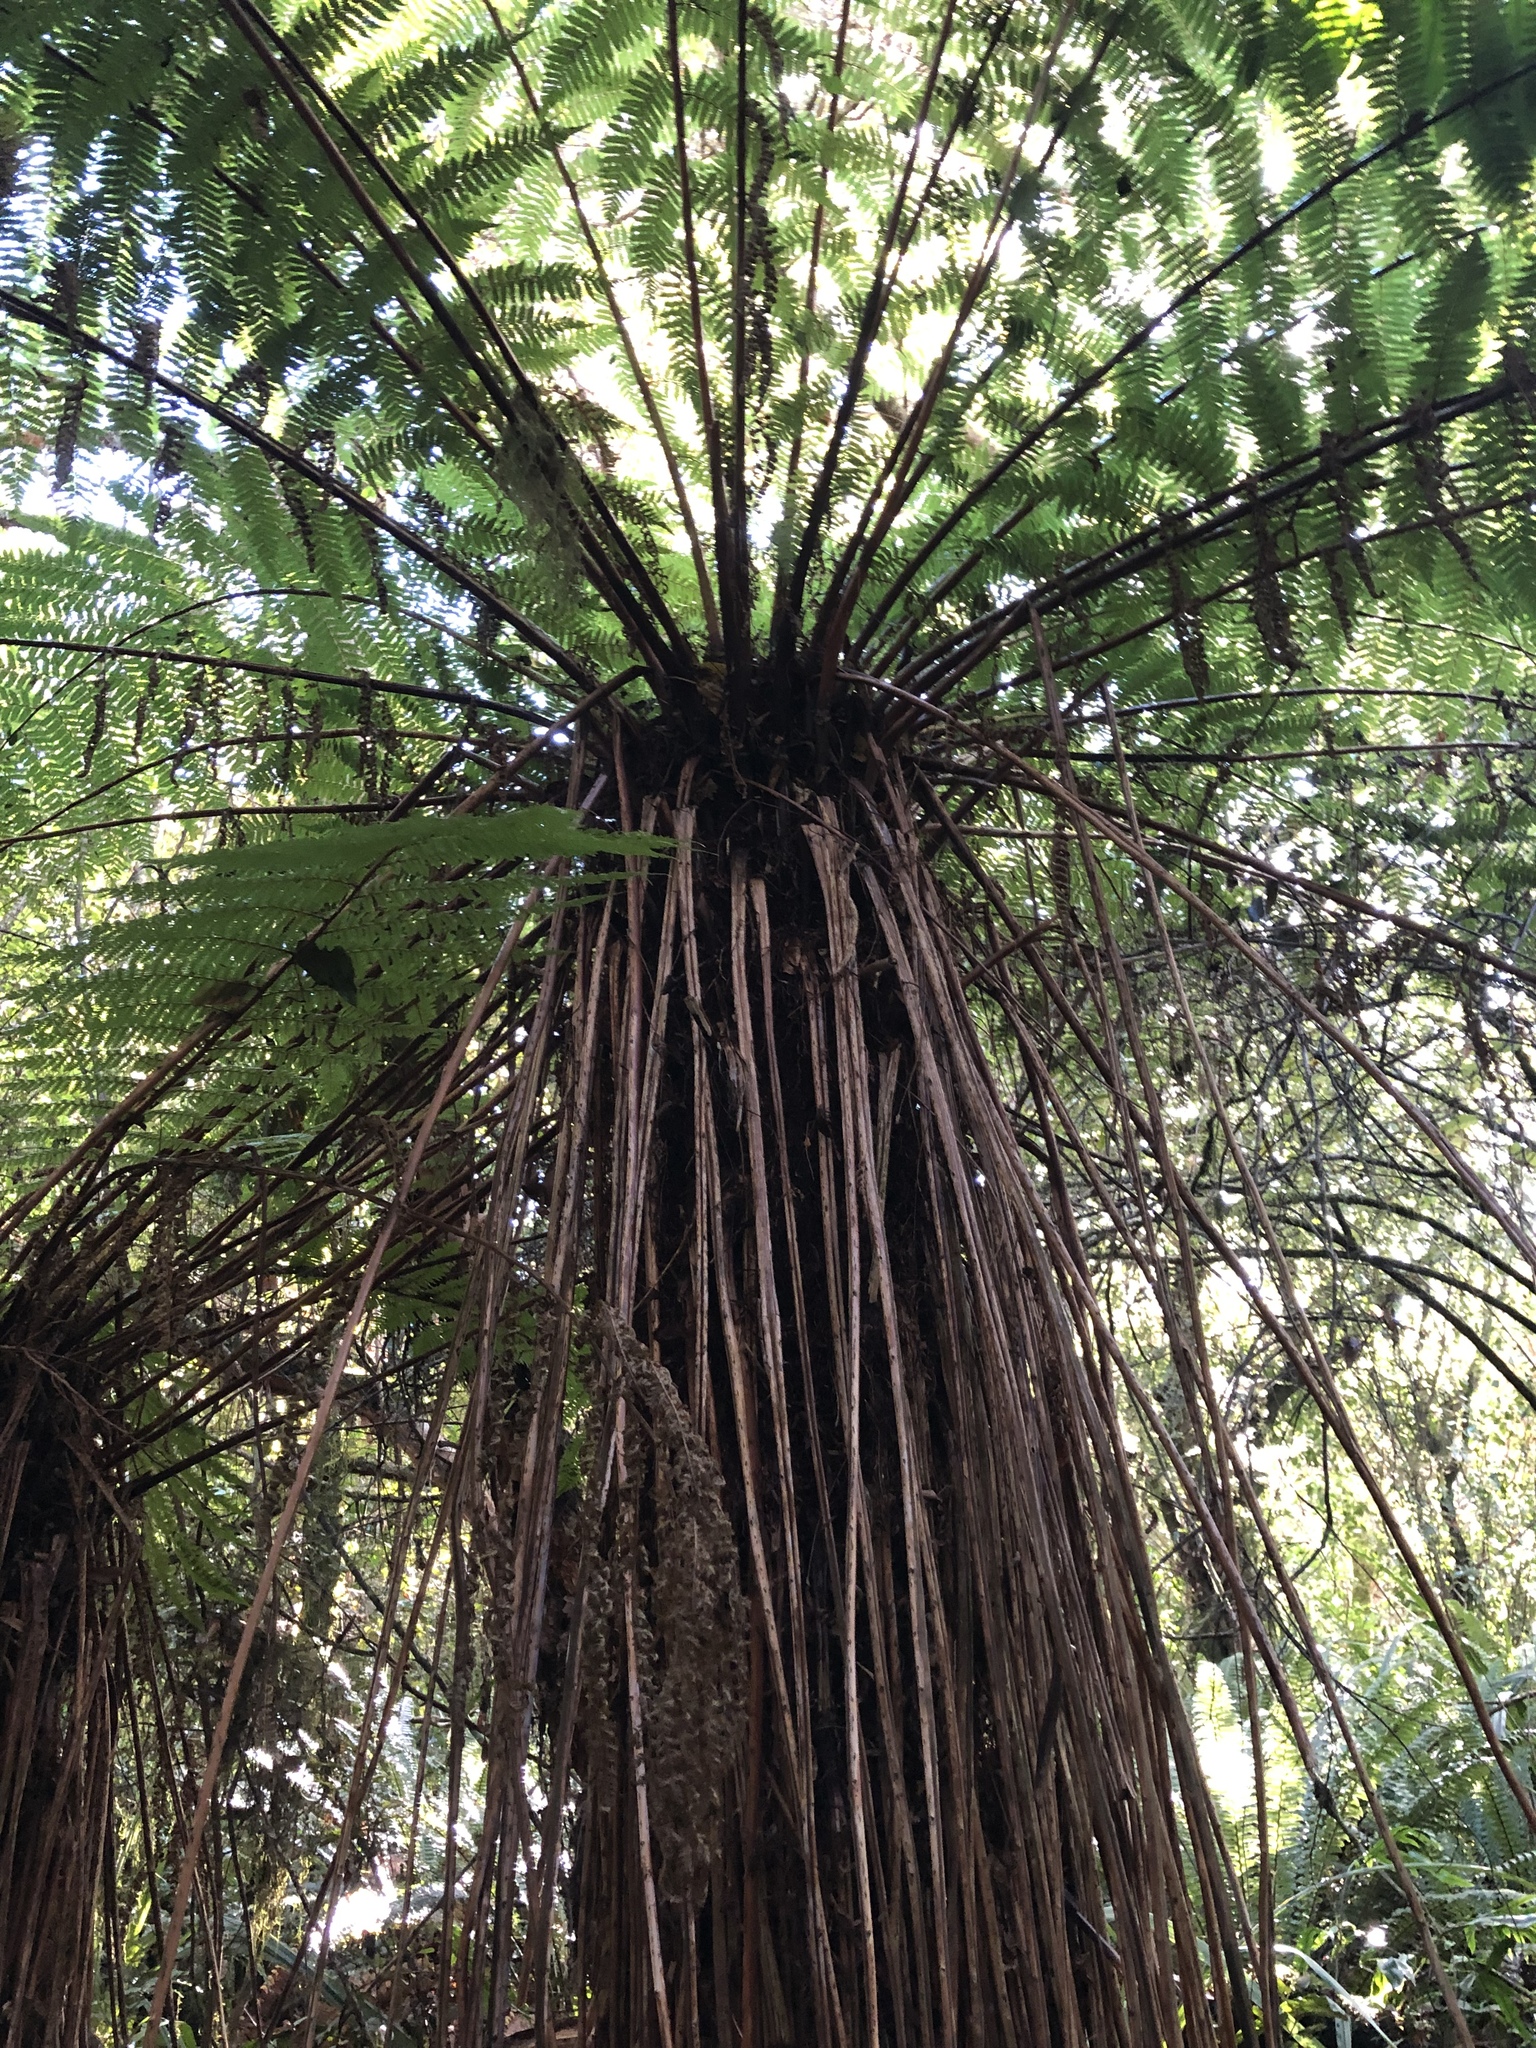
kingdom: Plantae
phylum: Tracheophyta
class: Polypodiopsida
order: Cyatheales
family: Cyatheaceae
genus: Alsophila
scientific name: Alsophila smithii
